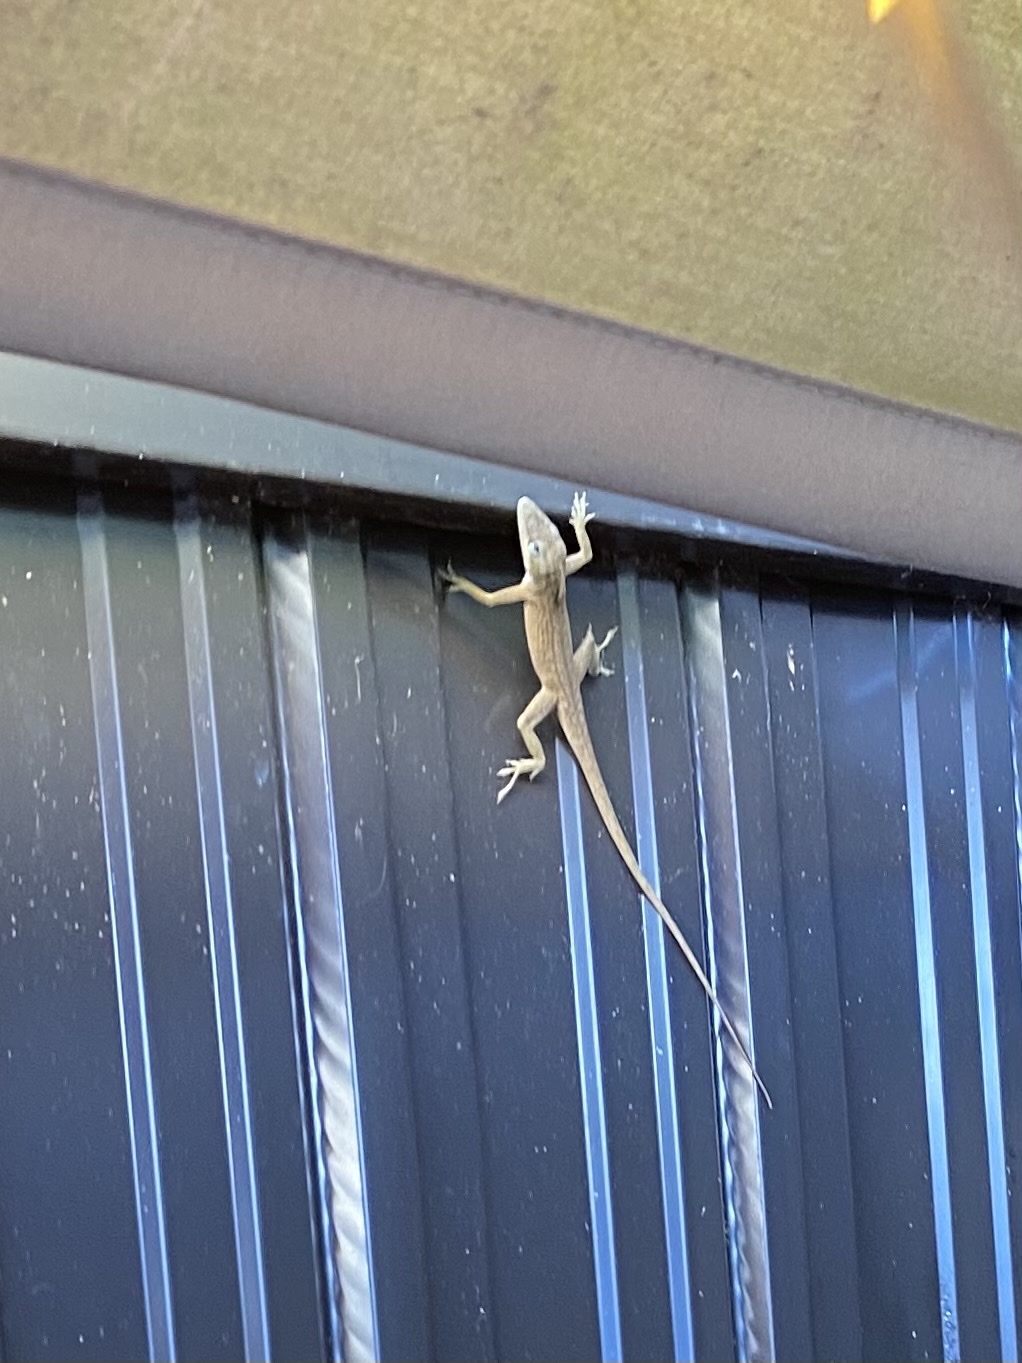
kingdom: Animalia
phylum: Chordata
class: Squamata
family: Dactyloidae
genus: Anolis
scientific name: Anolis carolinensis
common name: Green anole
